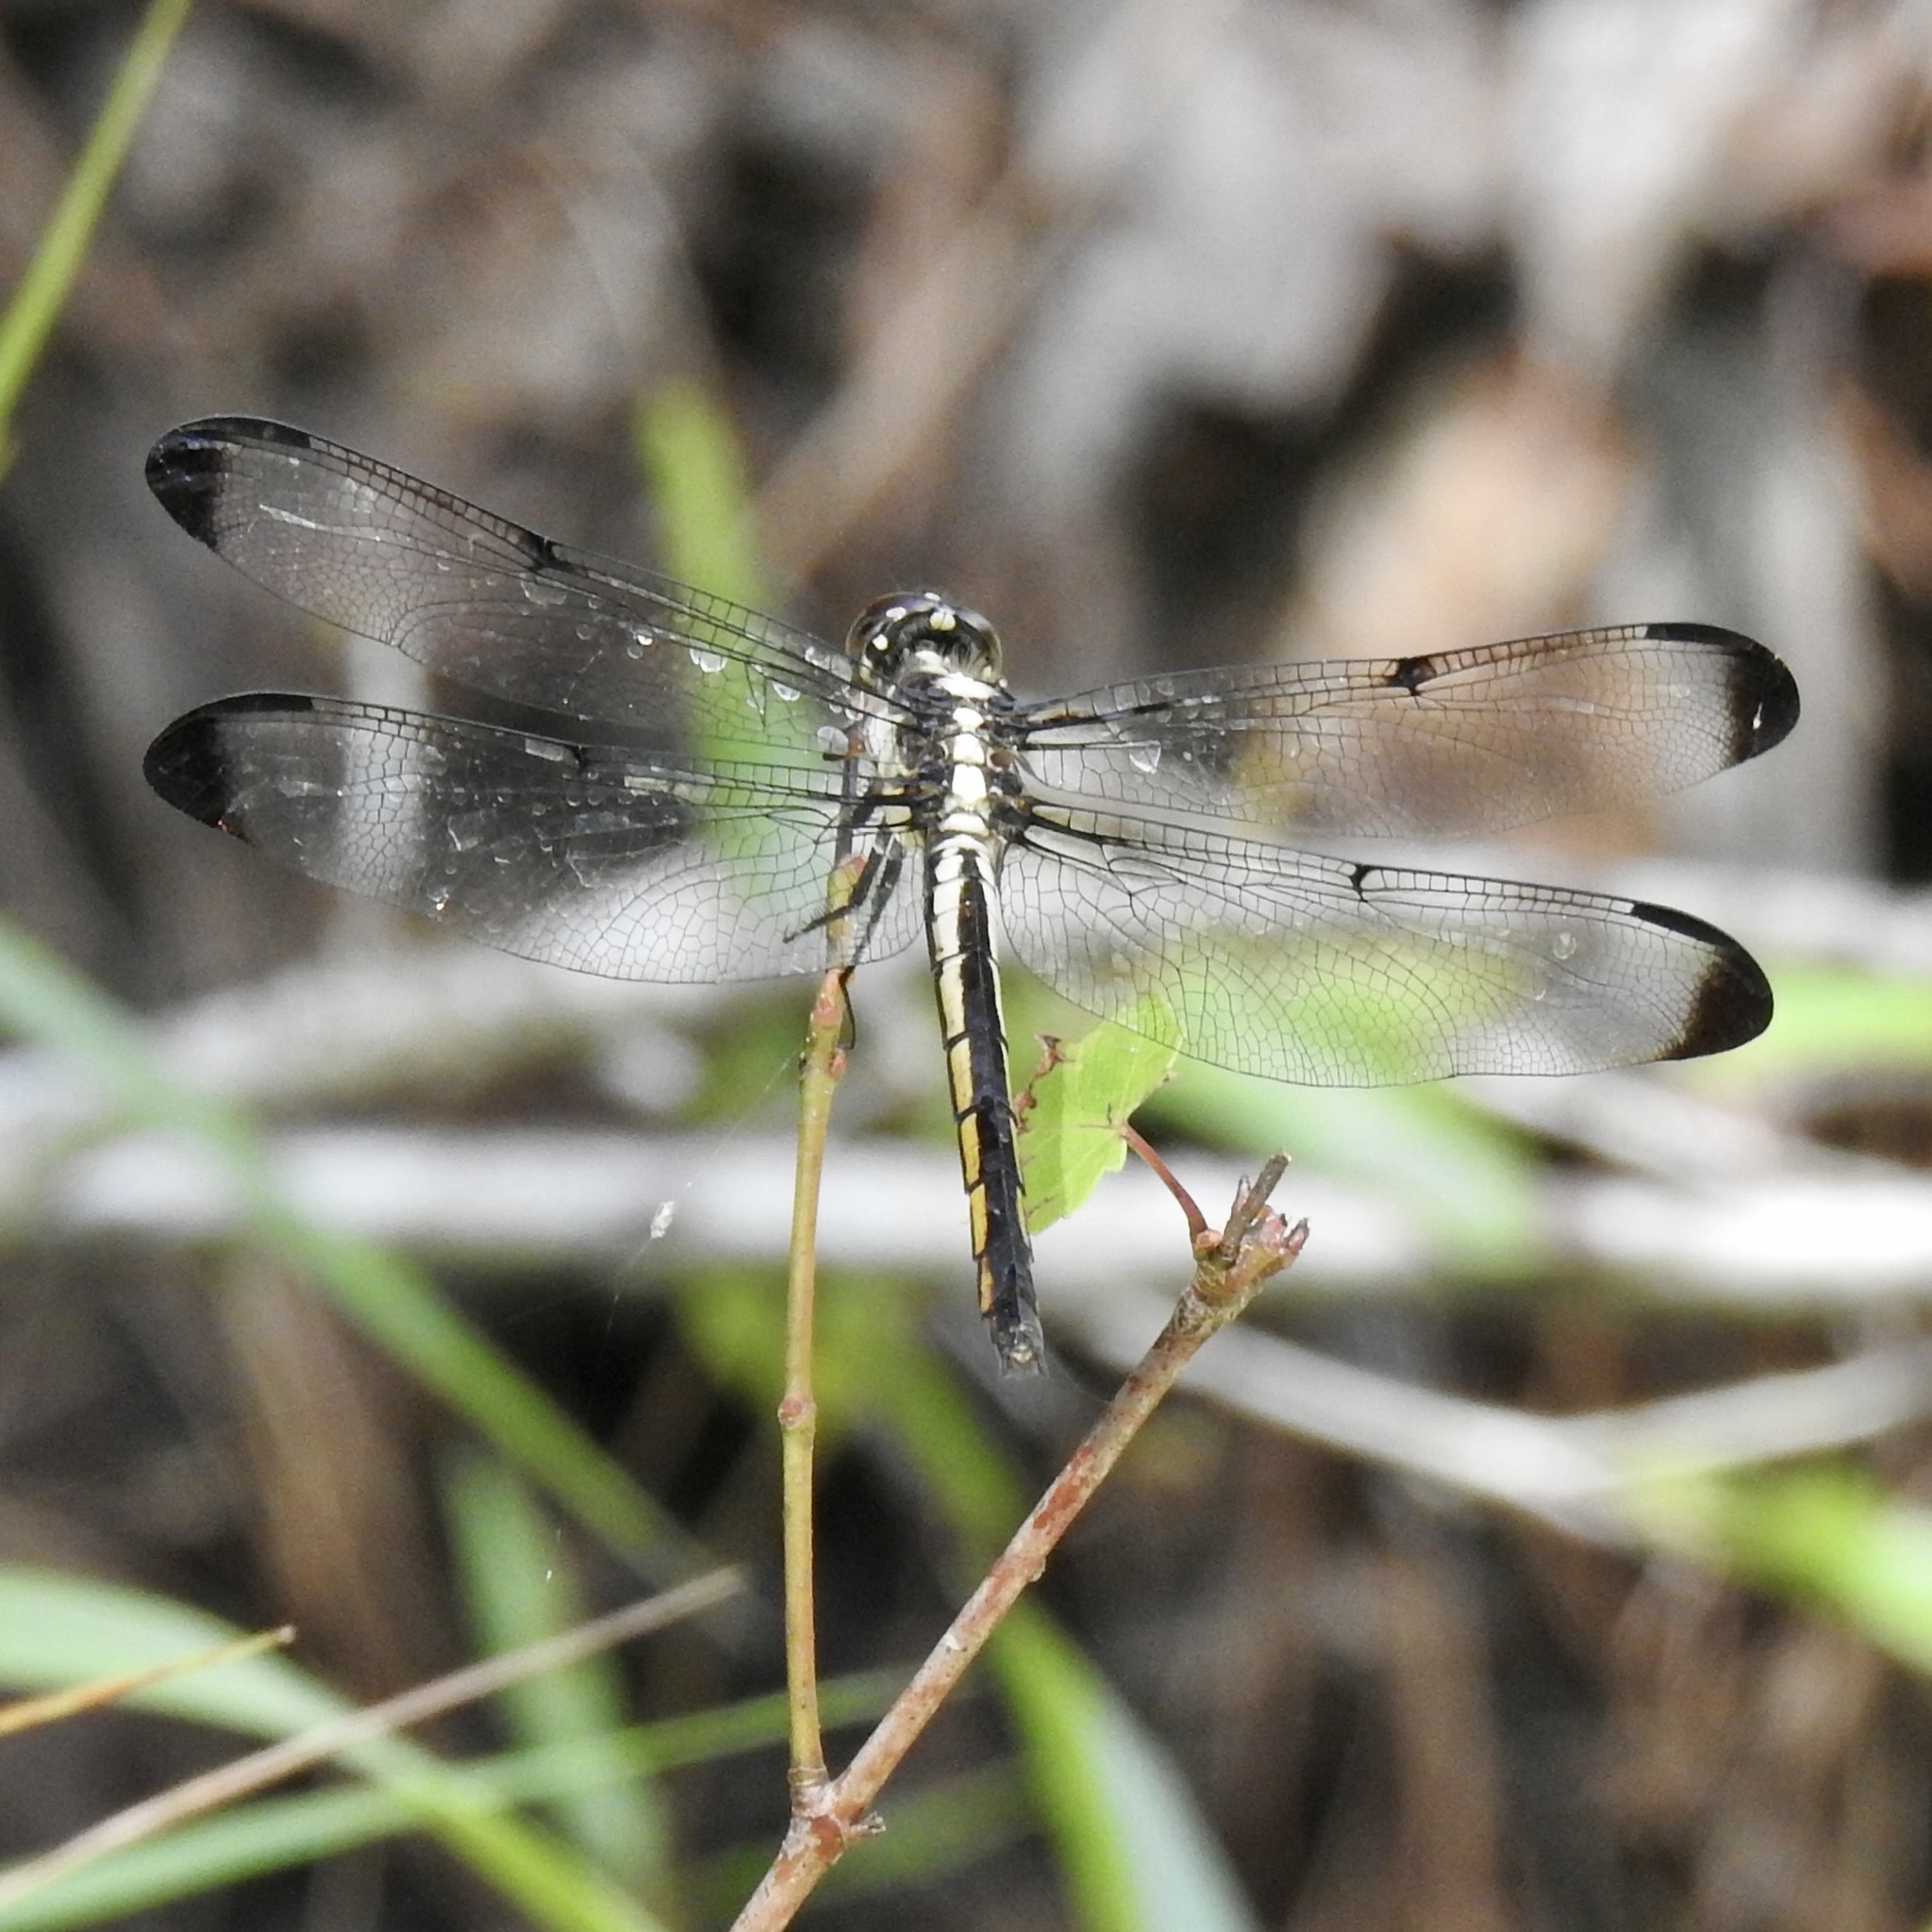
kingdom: Animalia
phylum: Arthropoda
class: Insecta
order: Odonata
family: Libellulidae
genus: Libellula
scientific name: Libellula incesta
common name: Slaty skimmer
